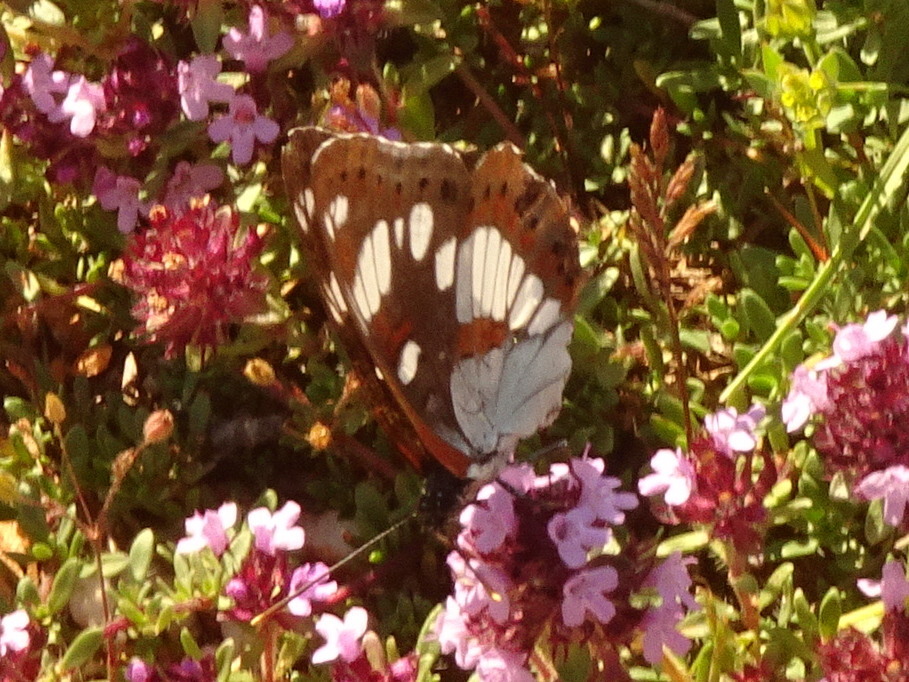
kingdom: Animalia
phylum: Arthropoda
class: Insecta
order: Lepidoptera
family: Nymphalidae
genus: Limenitis
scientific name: Limenitis reducta
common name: Southern white admiral
